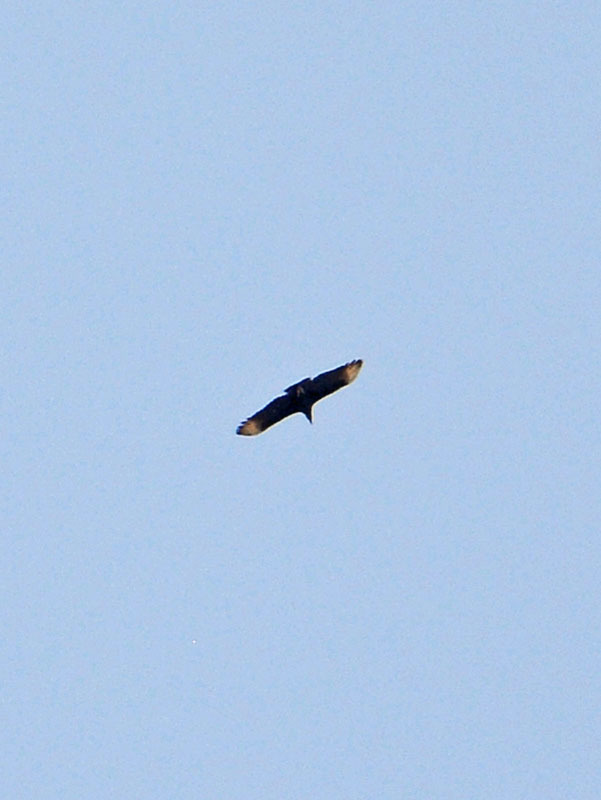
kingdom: Animalia
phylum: Chordata
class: Aves
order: Accipitriformes
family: Cathartidae
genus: Coragyps
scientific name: Coragyps atratus
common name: Black vulture
